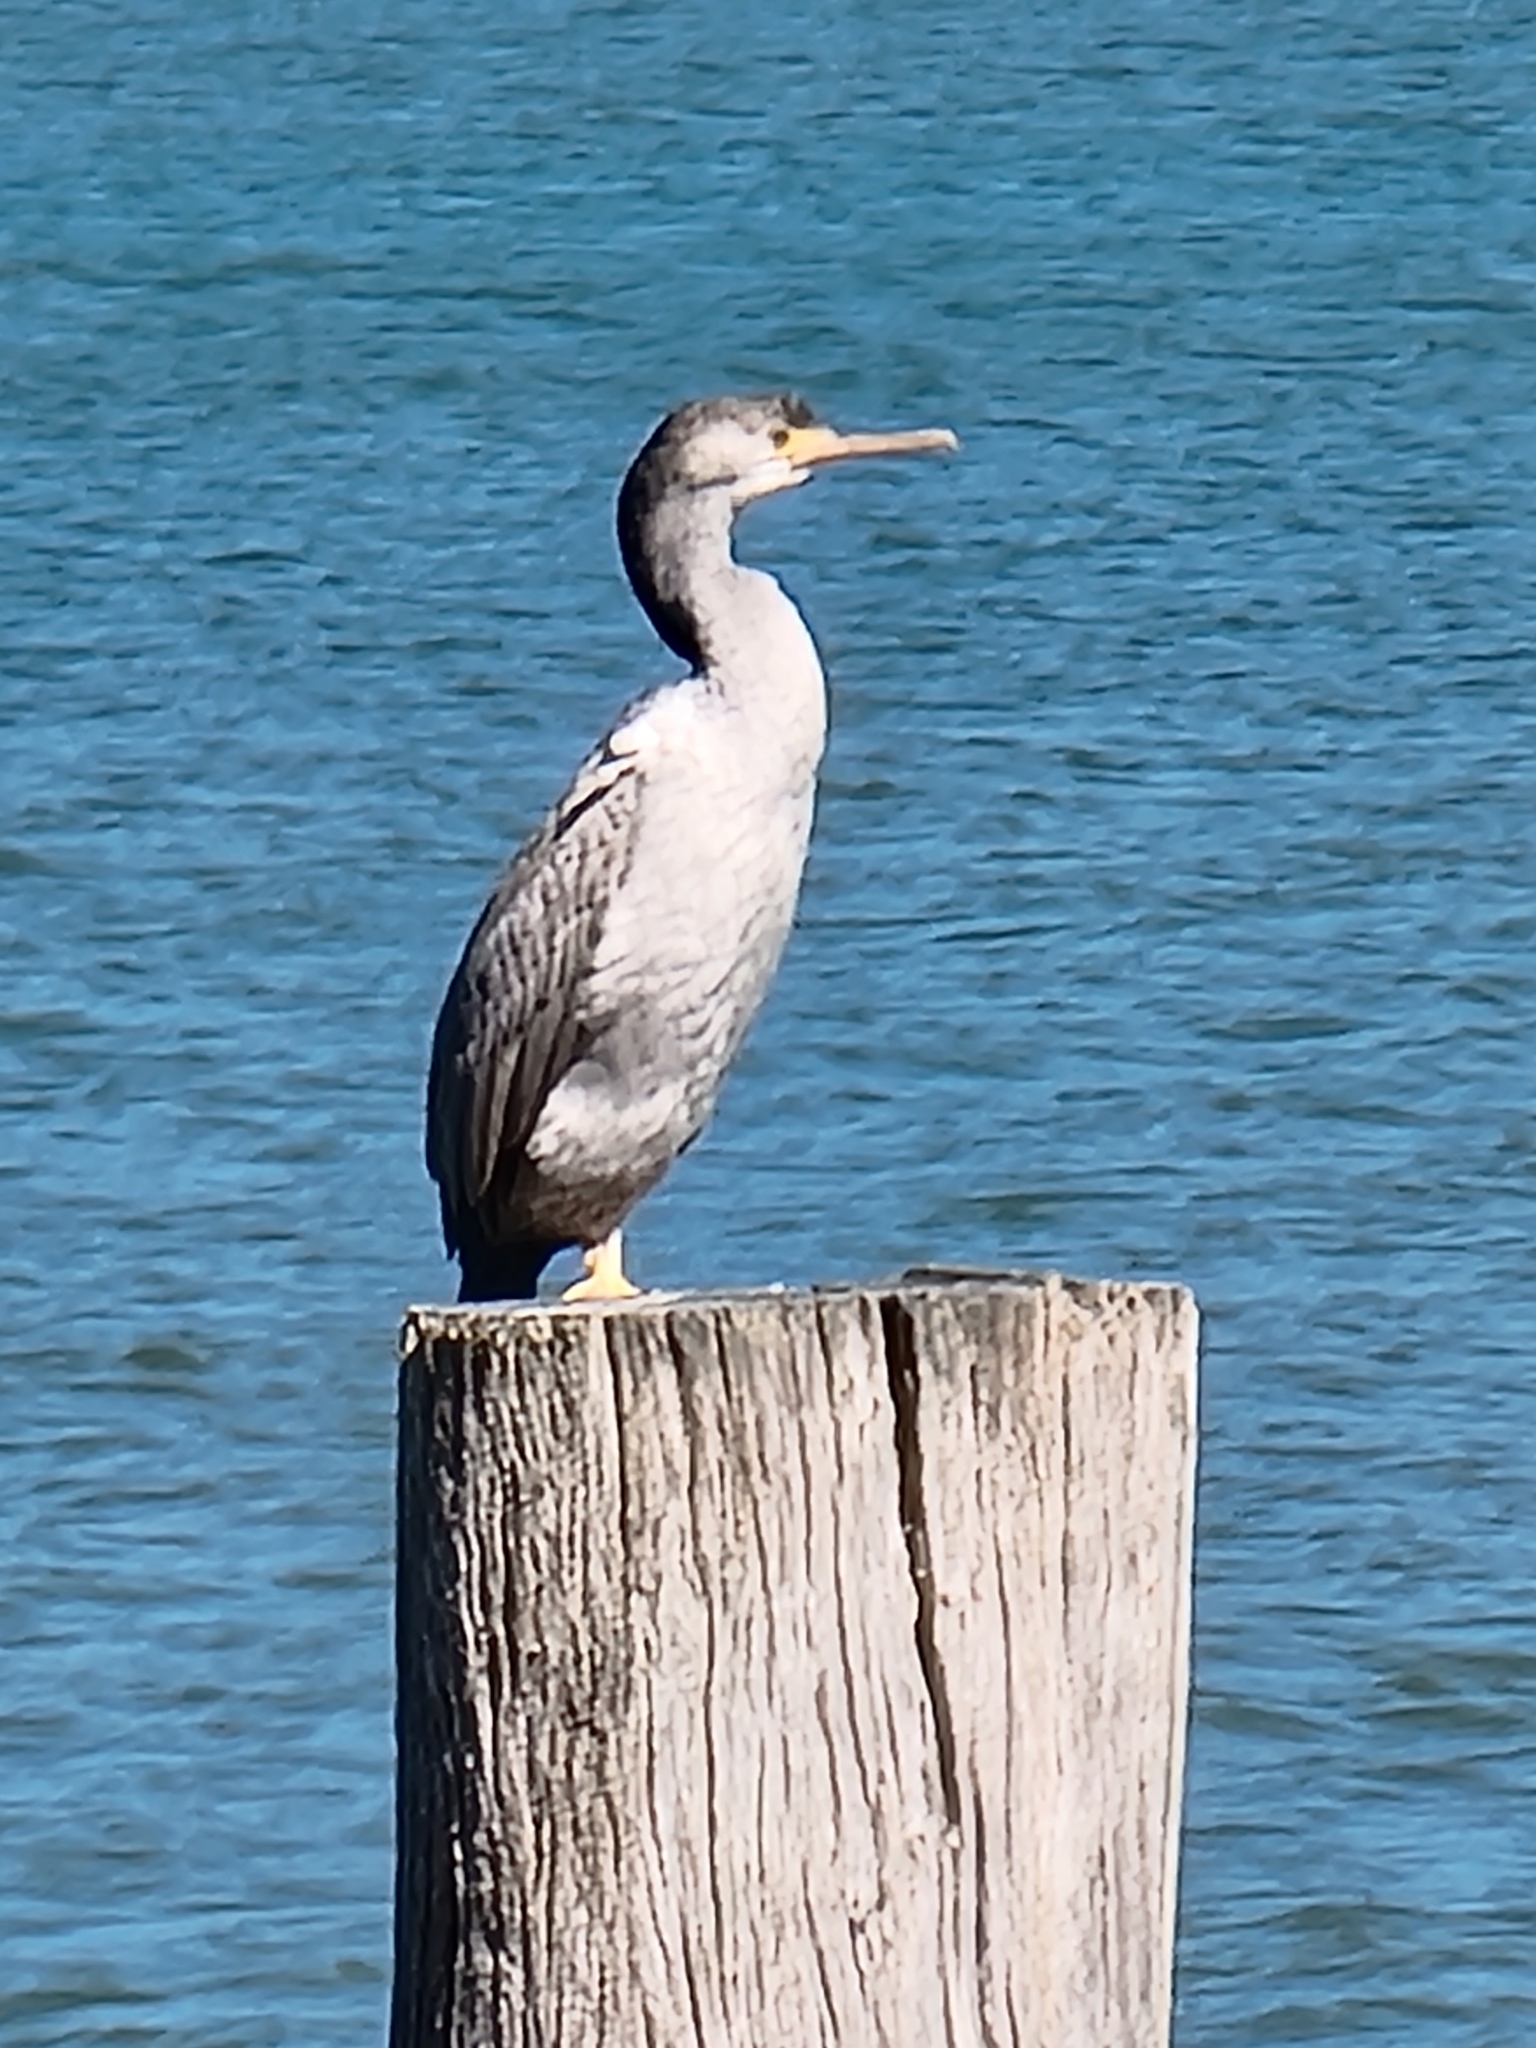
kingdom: Animalia
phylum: Chordata
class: Aves
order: Suliformes
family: Phalacrocoracidae
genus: Phalacrocorax
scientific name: Phalacrocorax punctatus
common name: Spotted shag
